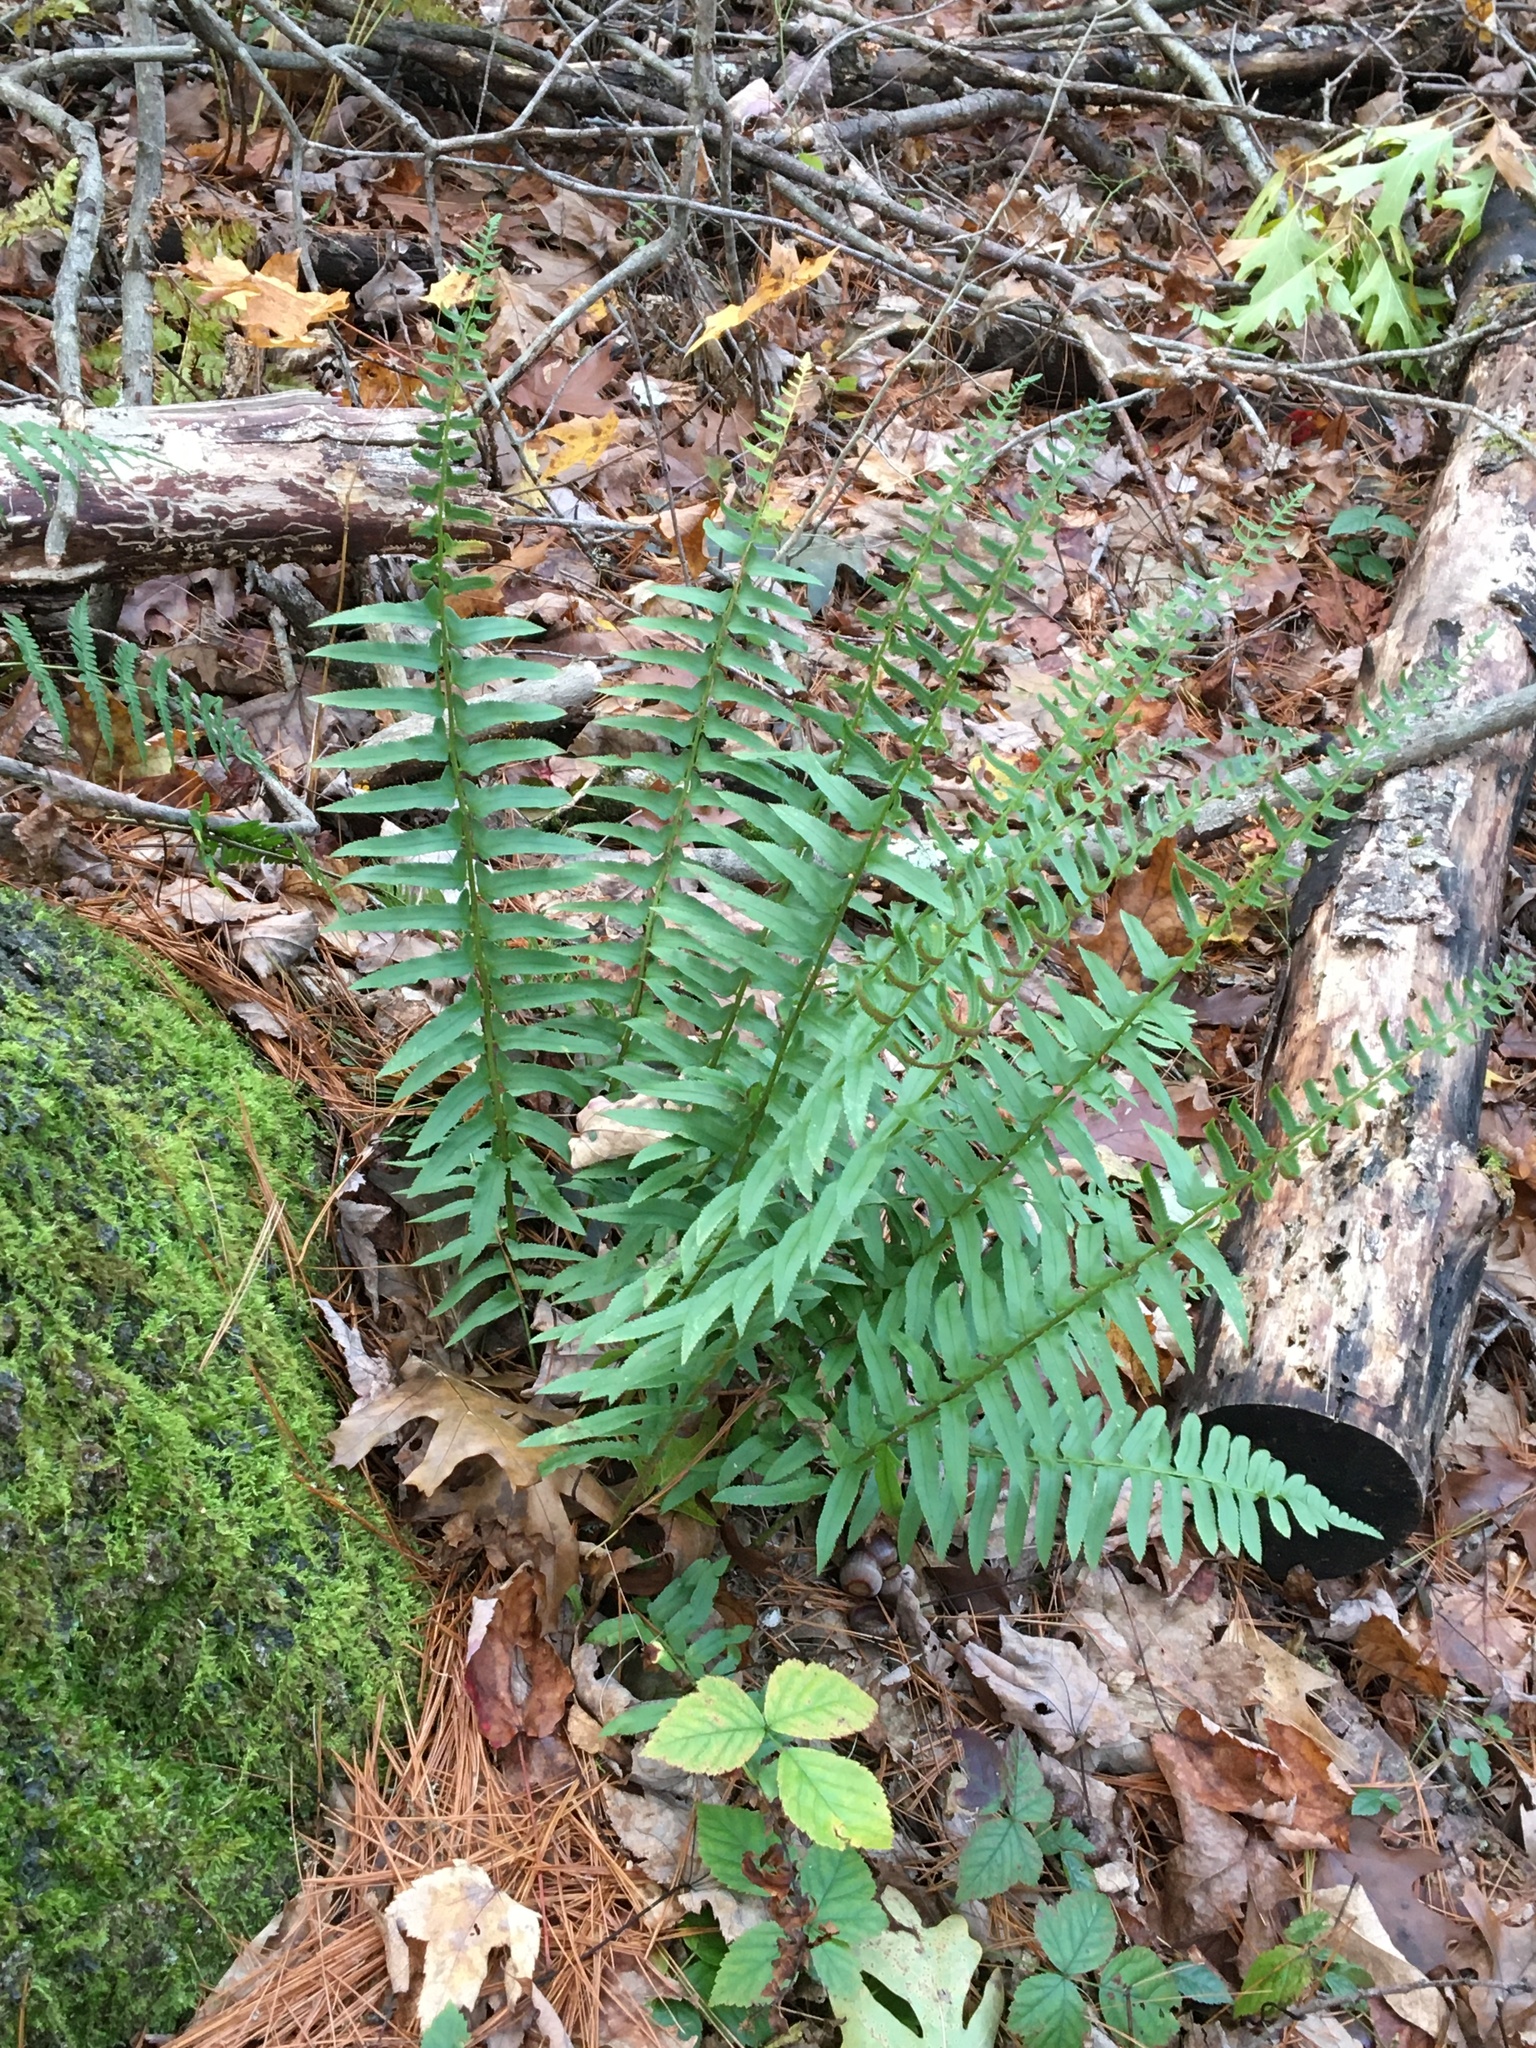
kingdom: Plantae
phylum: Tracheophyta
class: Polypodiopsida
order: Polypodiales
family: Dryopteridaceae
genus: Polystichum
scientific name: Polystichum acrostichoides
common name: Christmas fern
